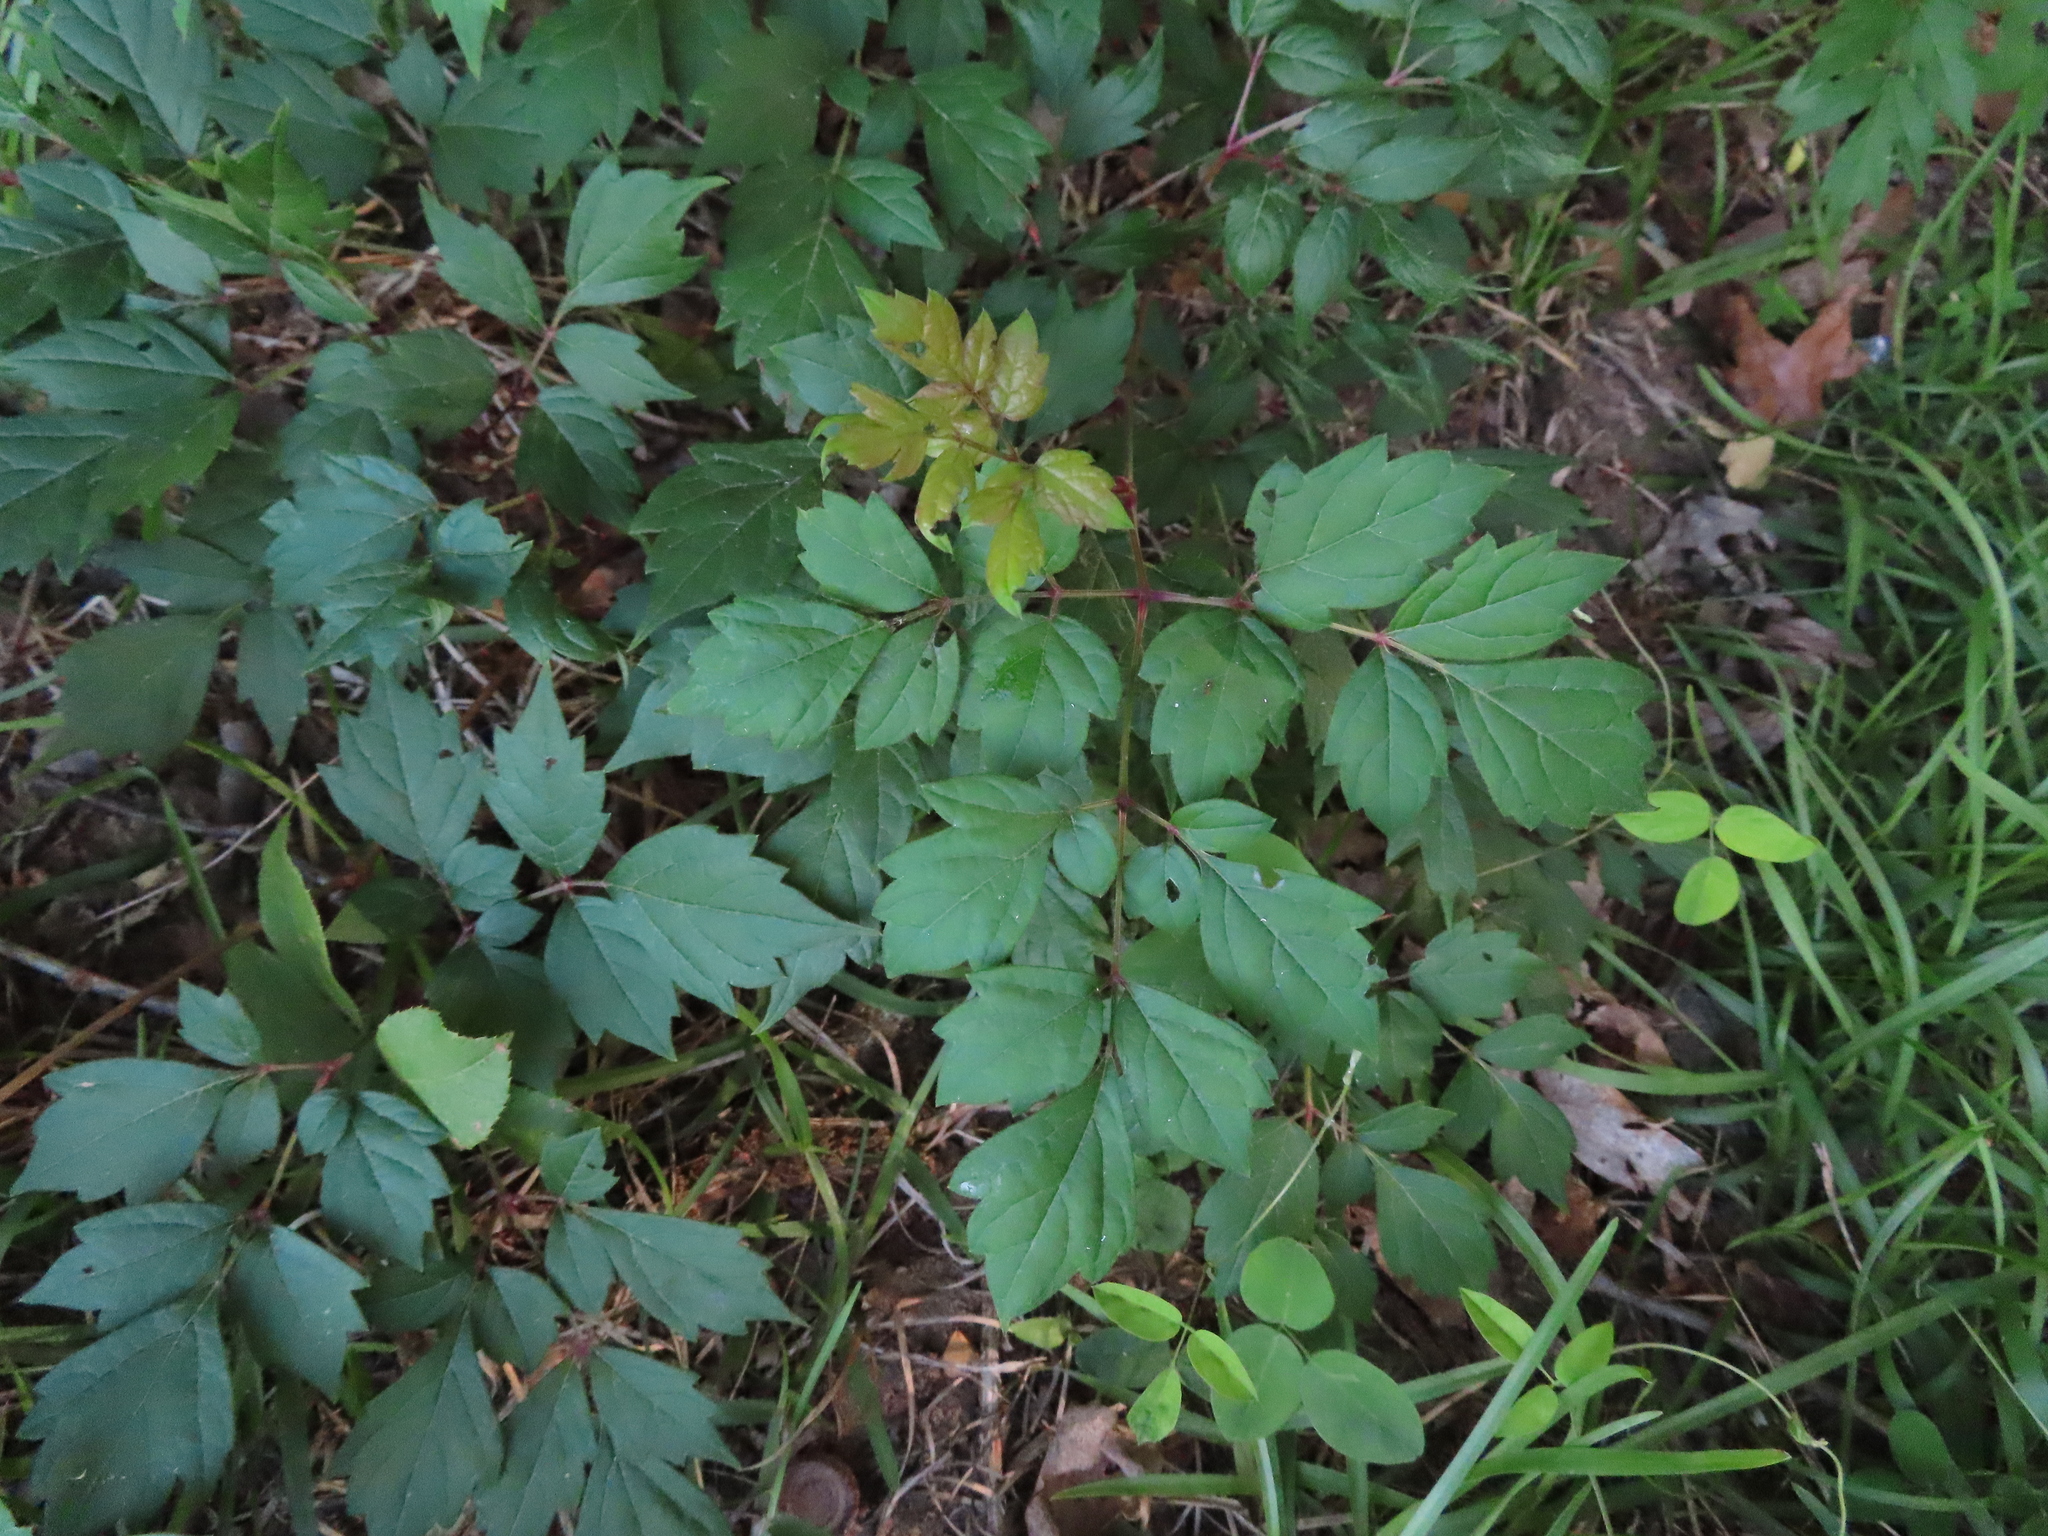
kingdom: Plantae
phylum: Tracheophyta
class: Magnoliopsida
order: Vitales
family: Vitaceae
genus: Nekemias
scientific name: Nekemias arborea
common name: Peppervine
